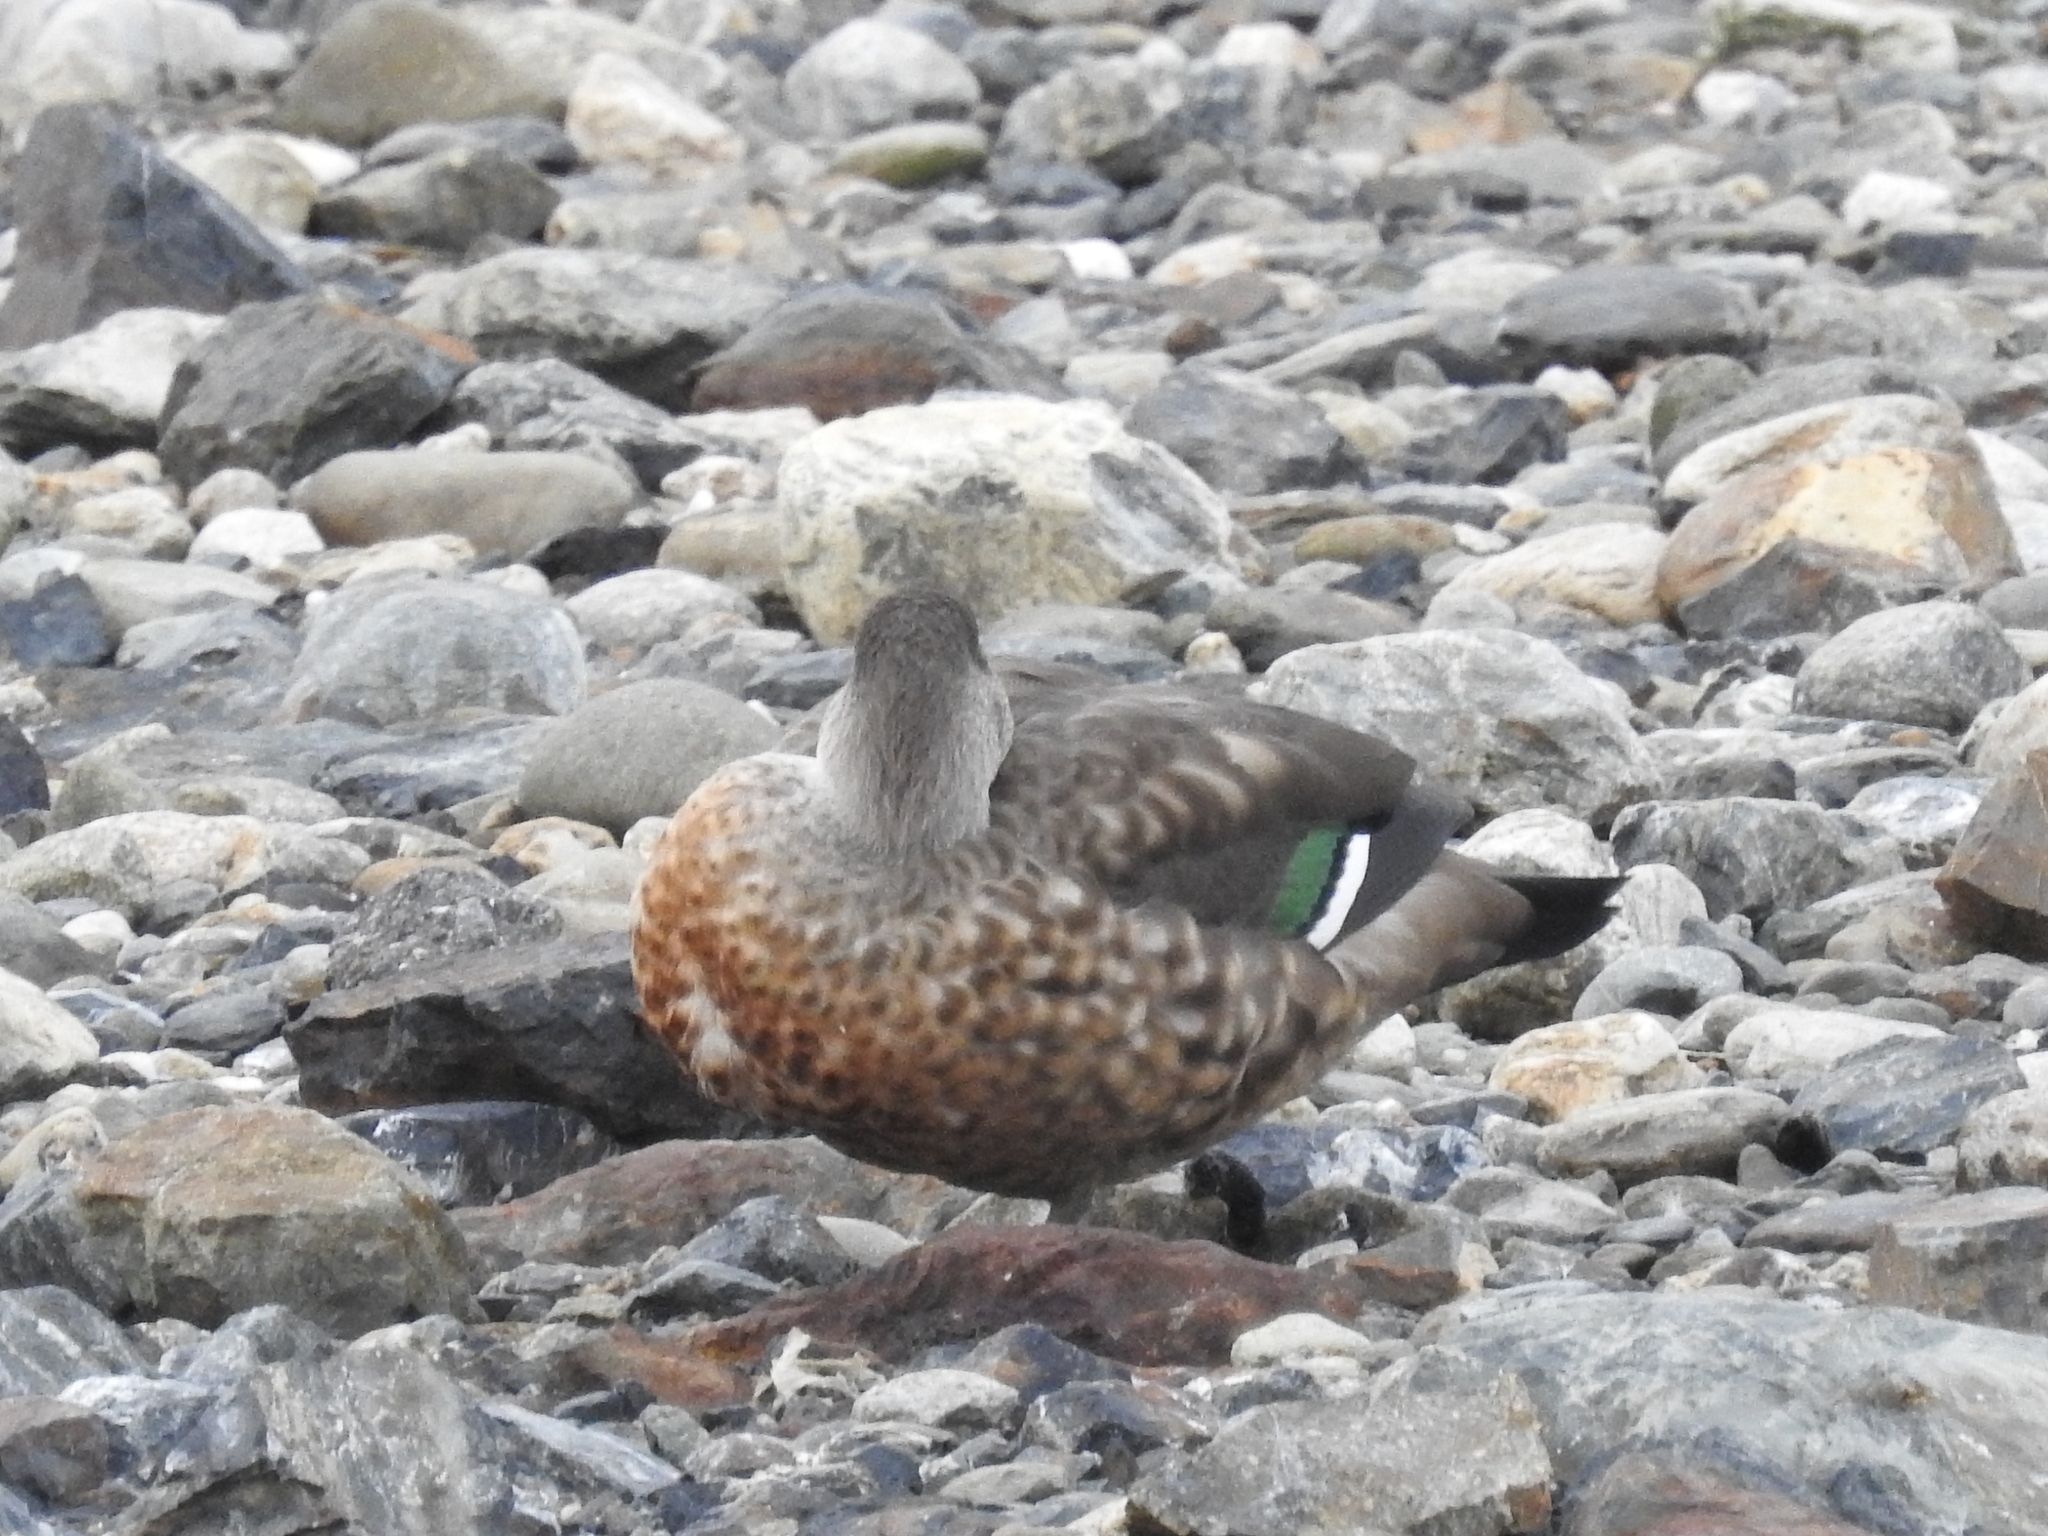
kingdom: Animalia
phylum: Chordata
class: Aves
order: Anseriformes
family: Anatidae
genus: Lophonetta
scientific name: Lophonetta specularioides
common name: Crested duck
